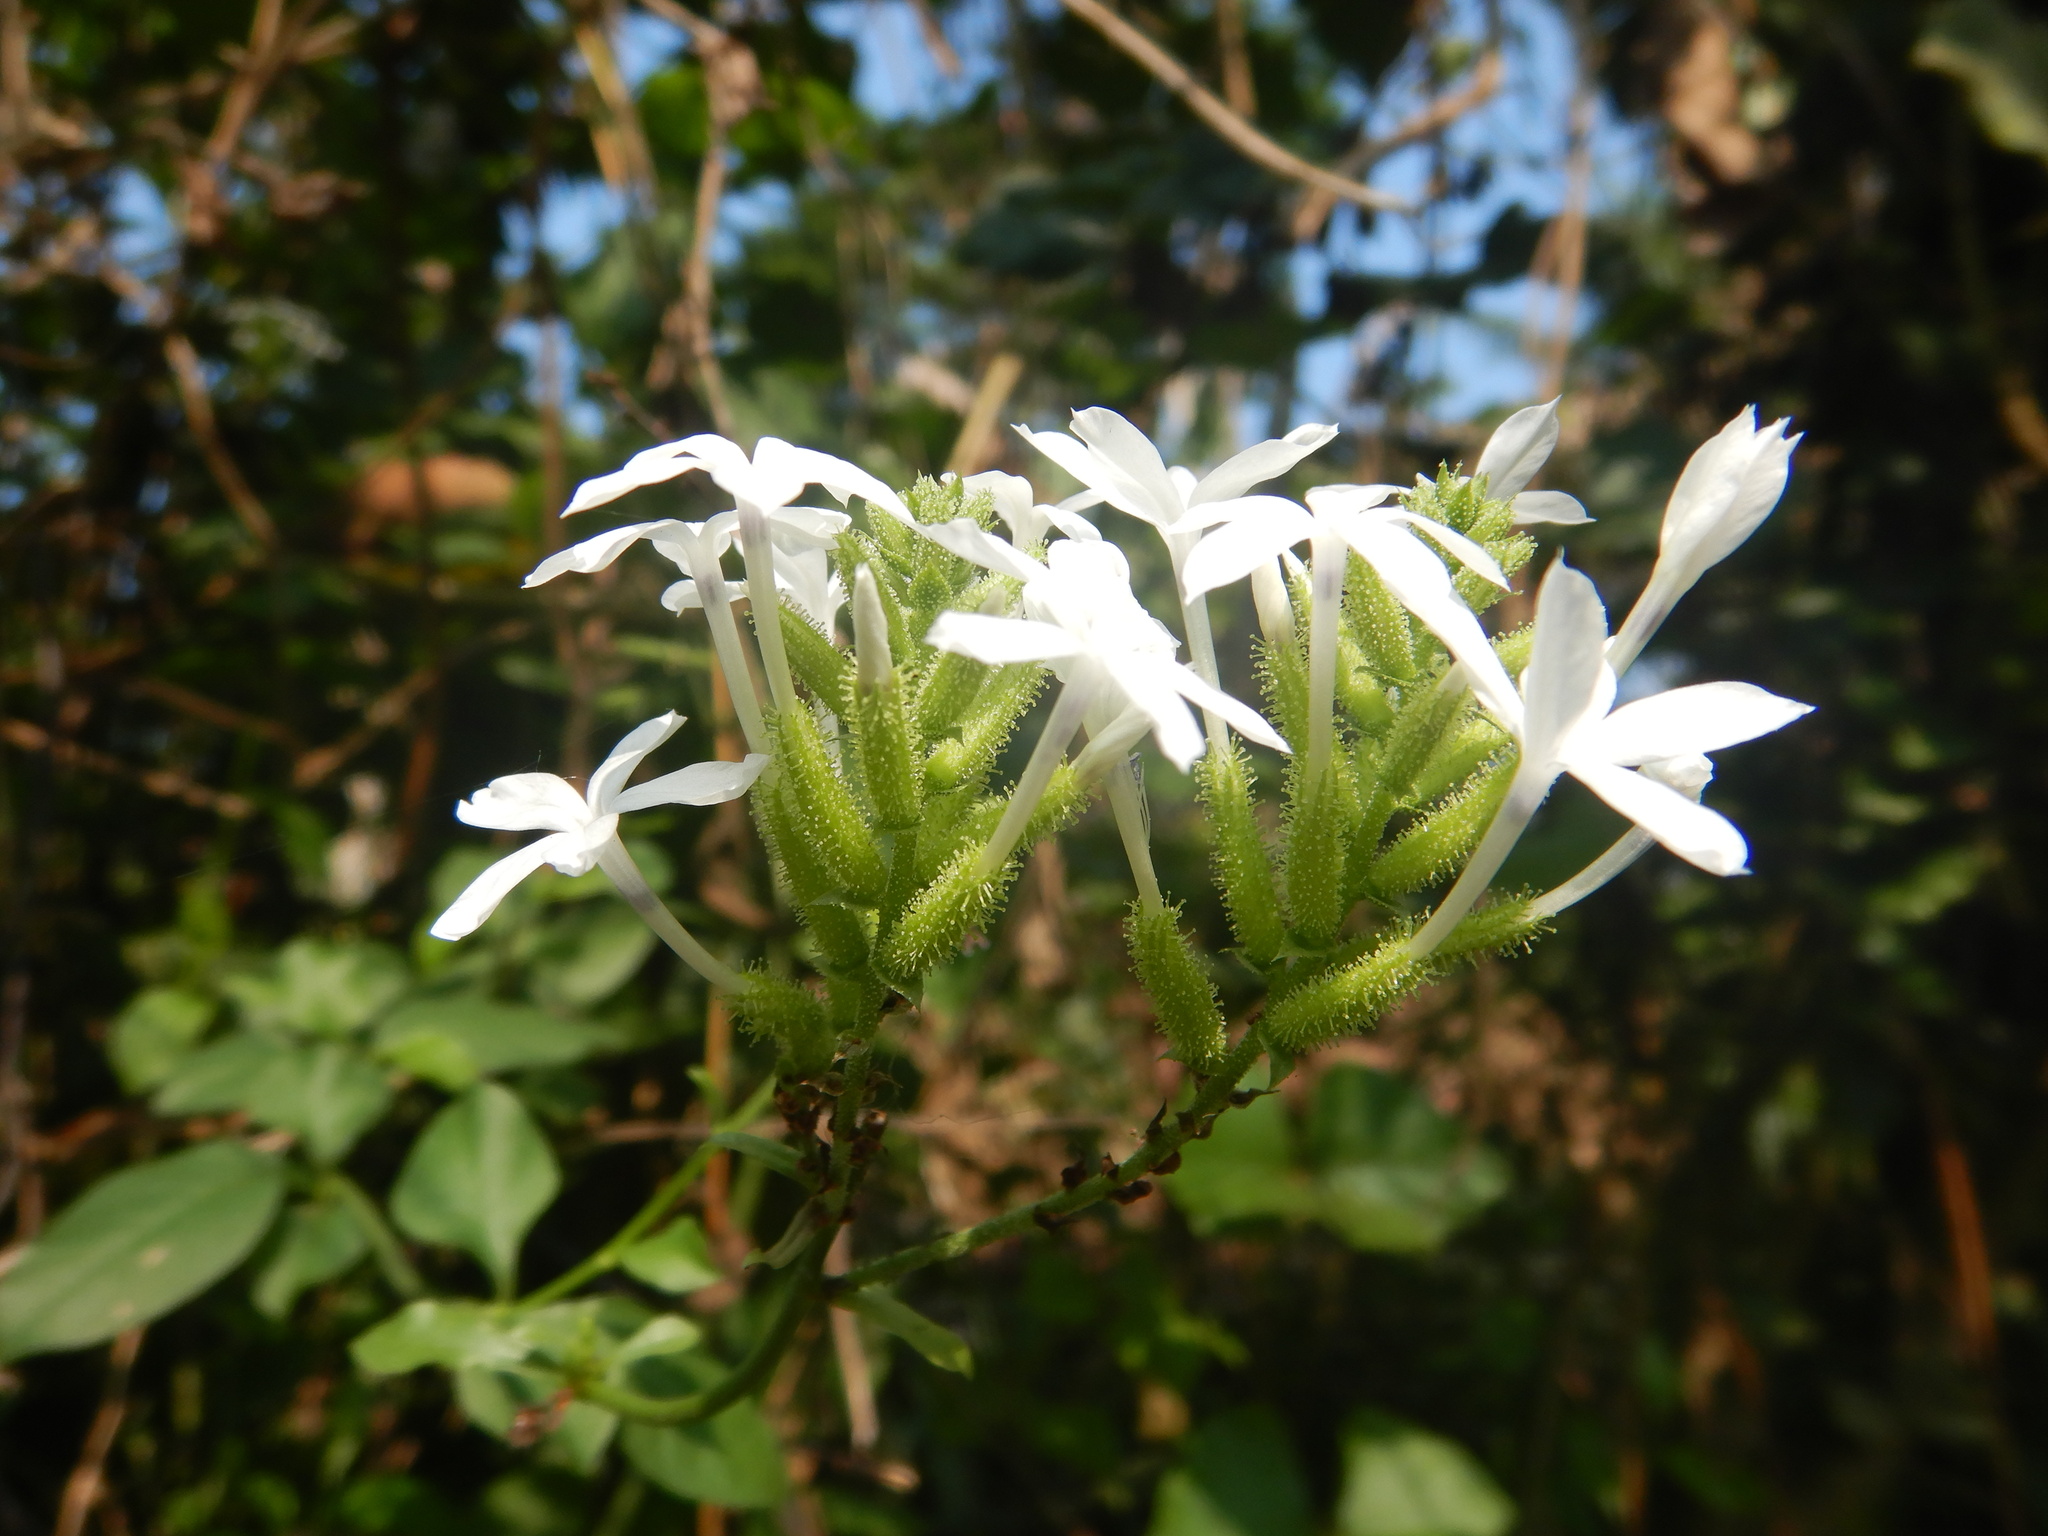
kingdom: Plantae
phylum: Tracheophyta
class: Magnoliopsida
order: Caryophyllales
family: Plumbaginaceae
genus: Plumbago
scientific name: Plumbago zeylanica
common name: Doctorbush
